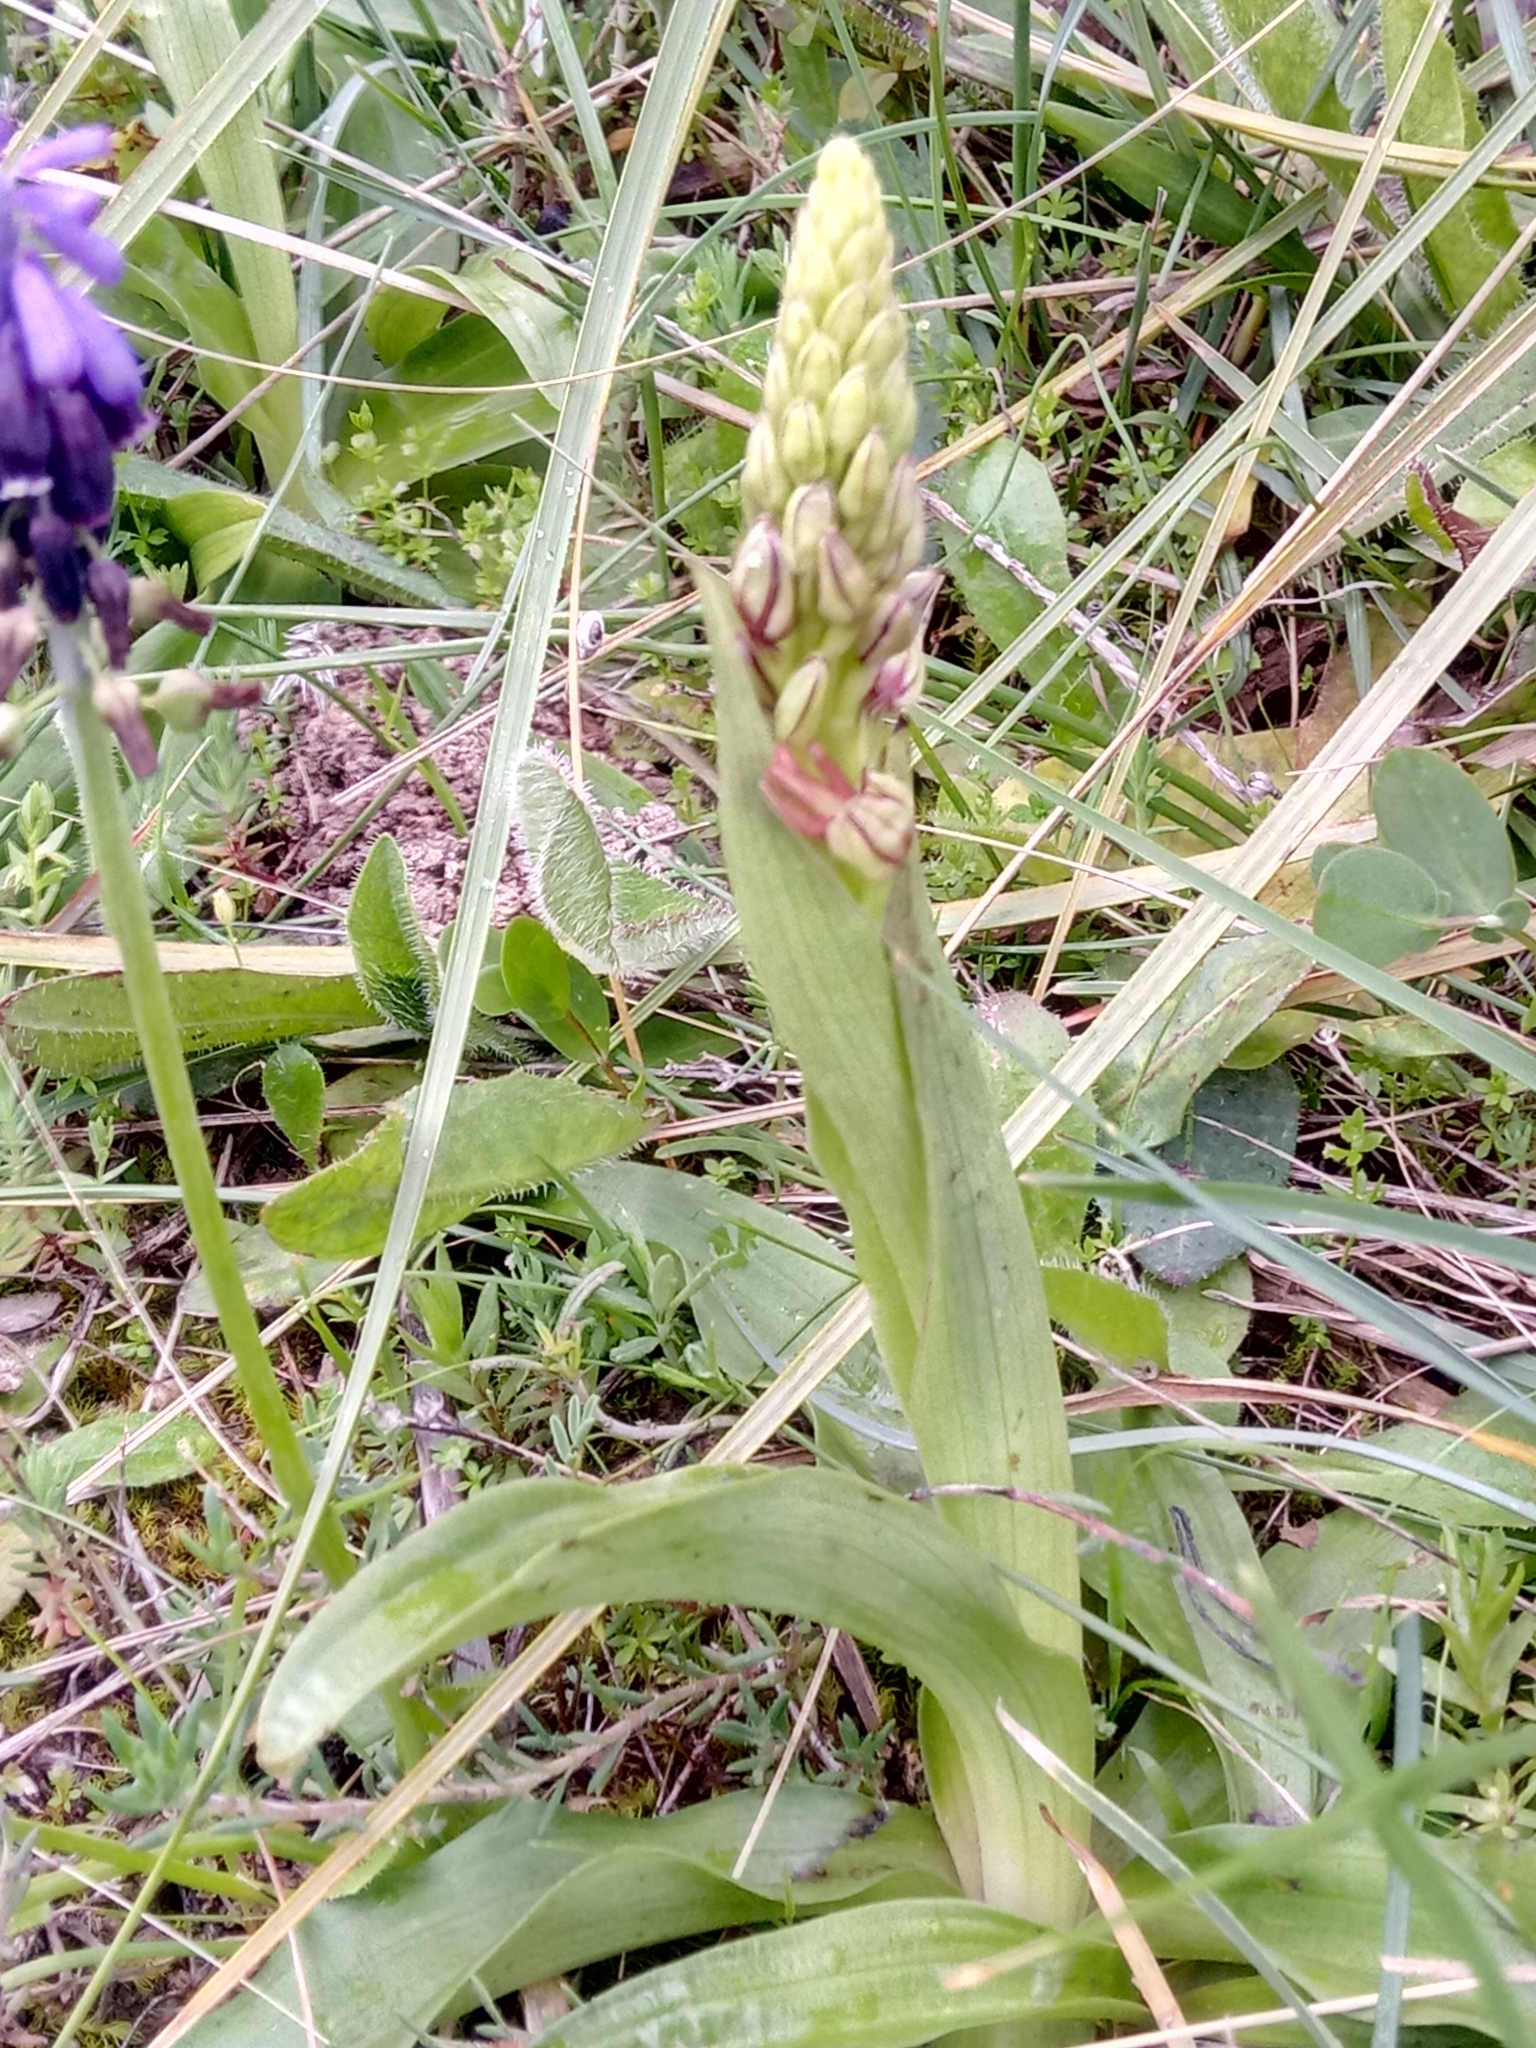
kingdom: Plantae
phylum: Tracheophyta
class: Liliopsida
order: Asparagales
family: Orchidaceae
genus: Orchis
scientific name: Orchis anthropophora
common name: Man orchid
